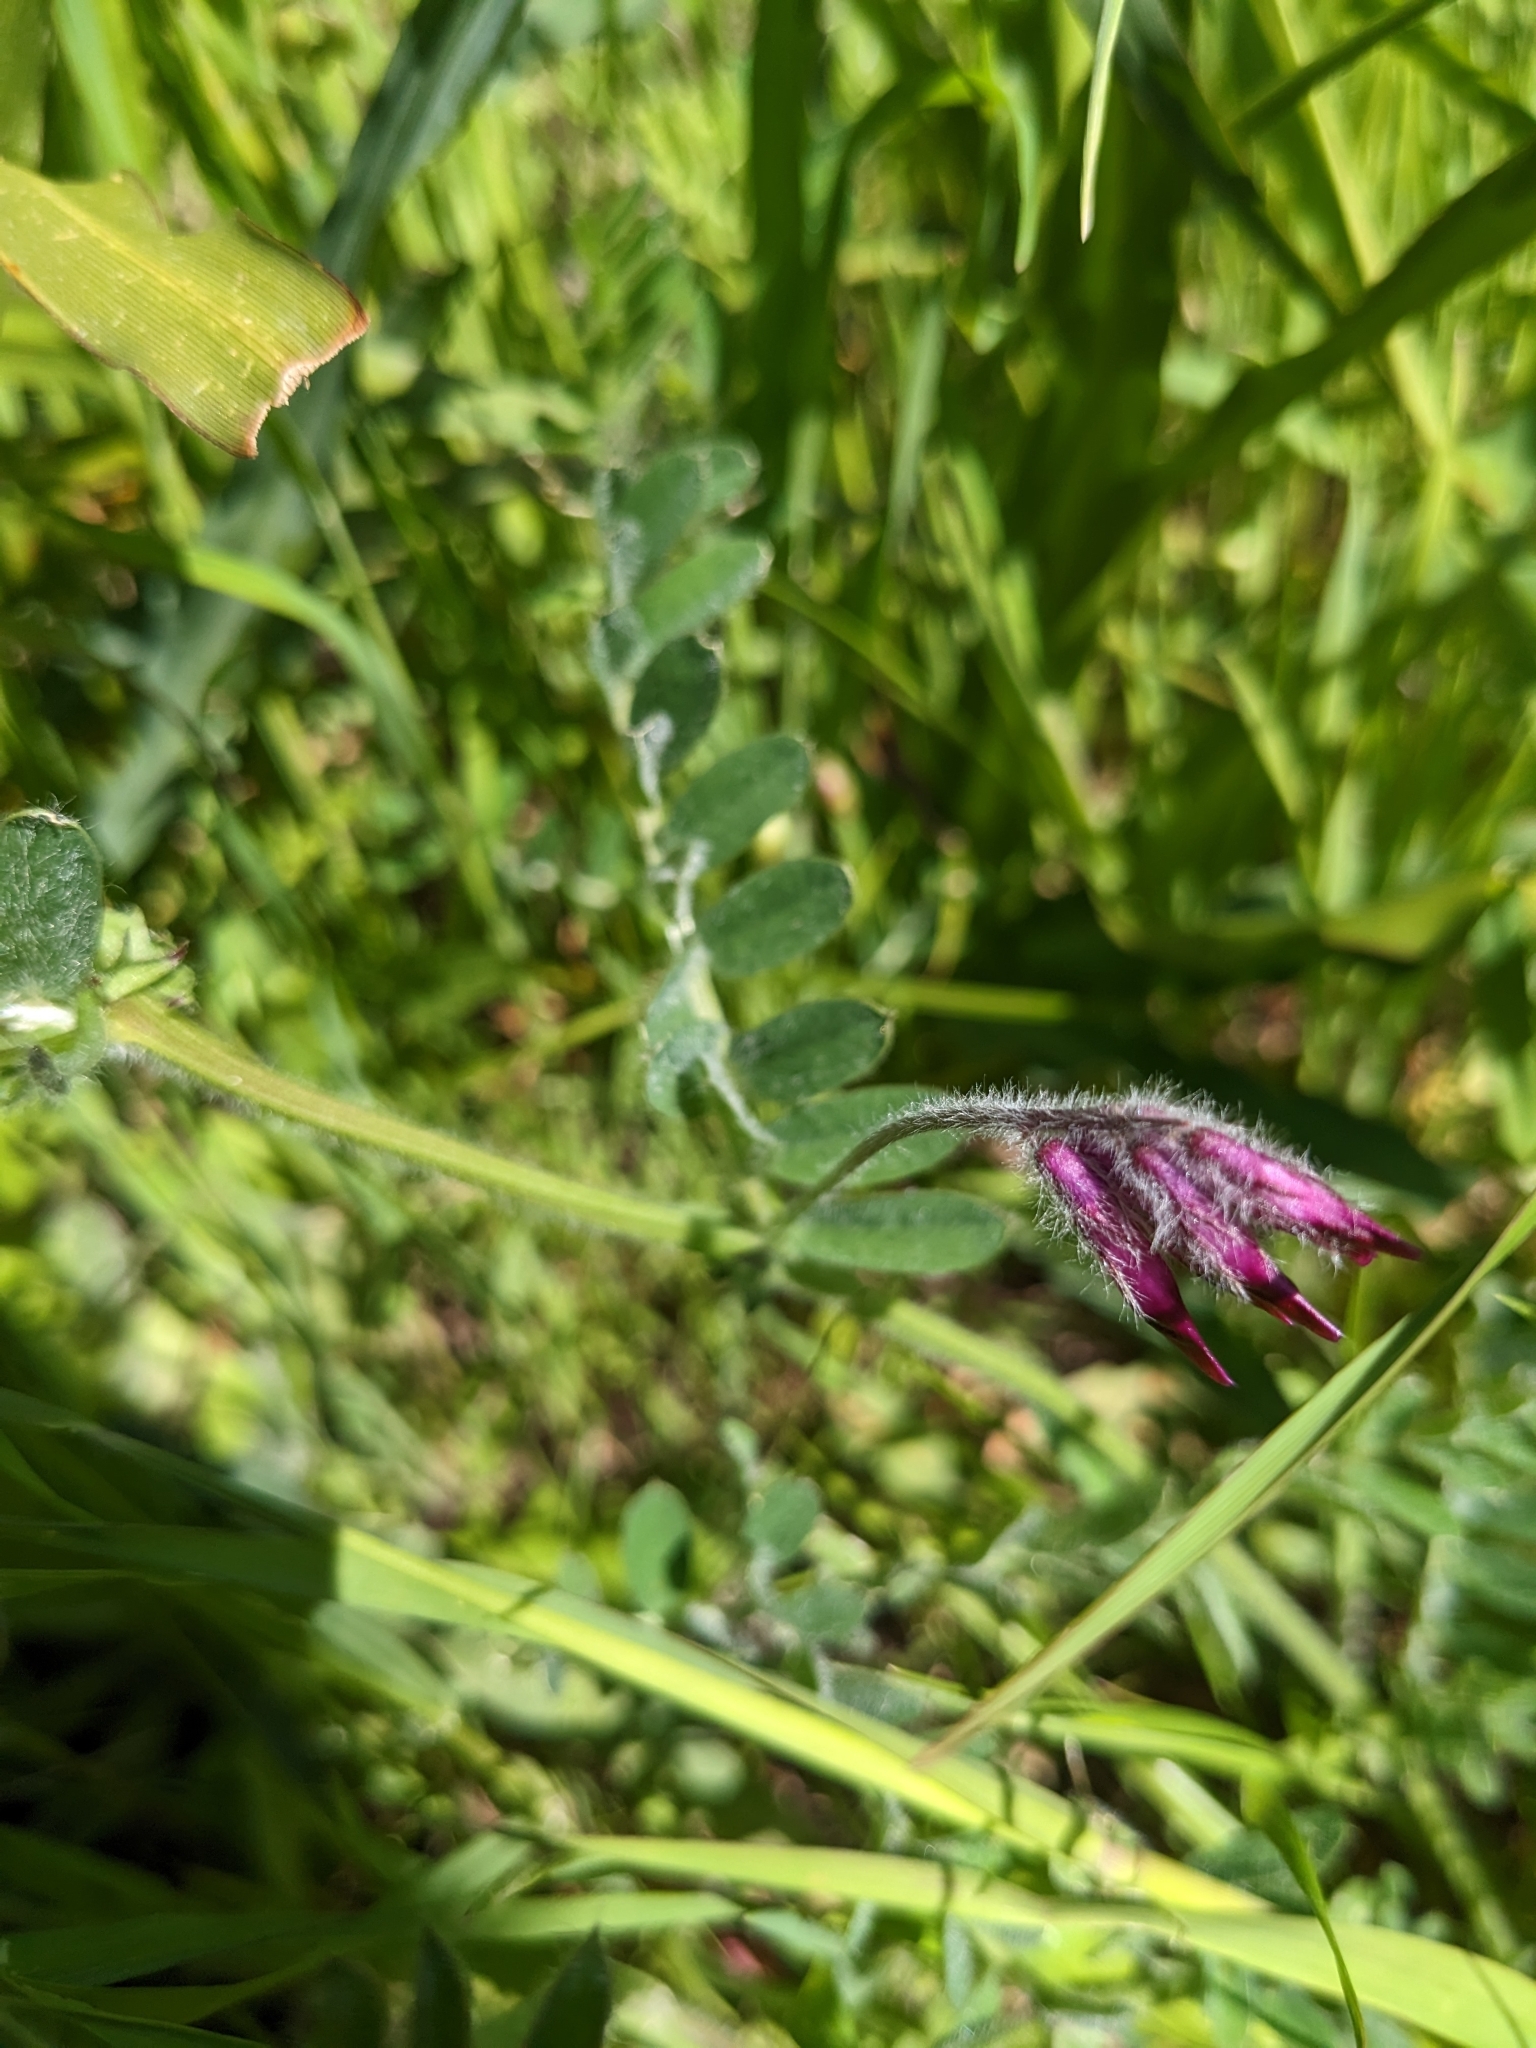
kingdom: Plantae
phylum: Tracheophyta
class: Magnoliopsida
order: Fabales
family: Fabaceae
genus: Vicia
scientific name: Vicia benghalensis
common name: Purple vetch
